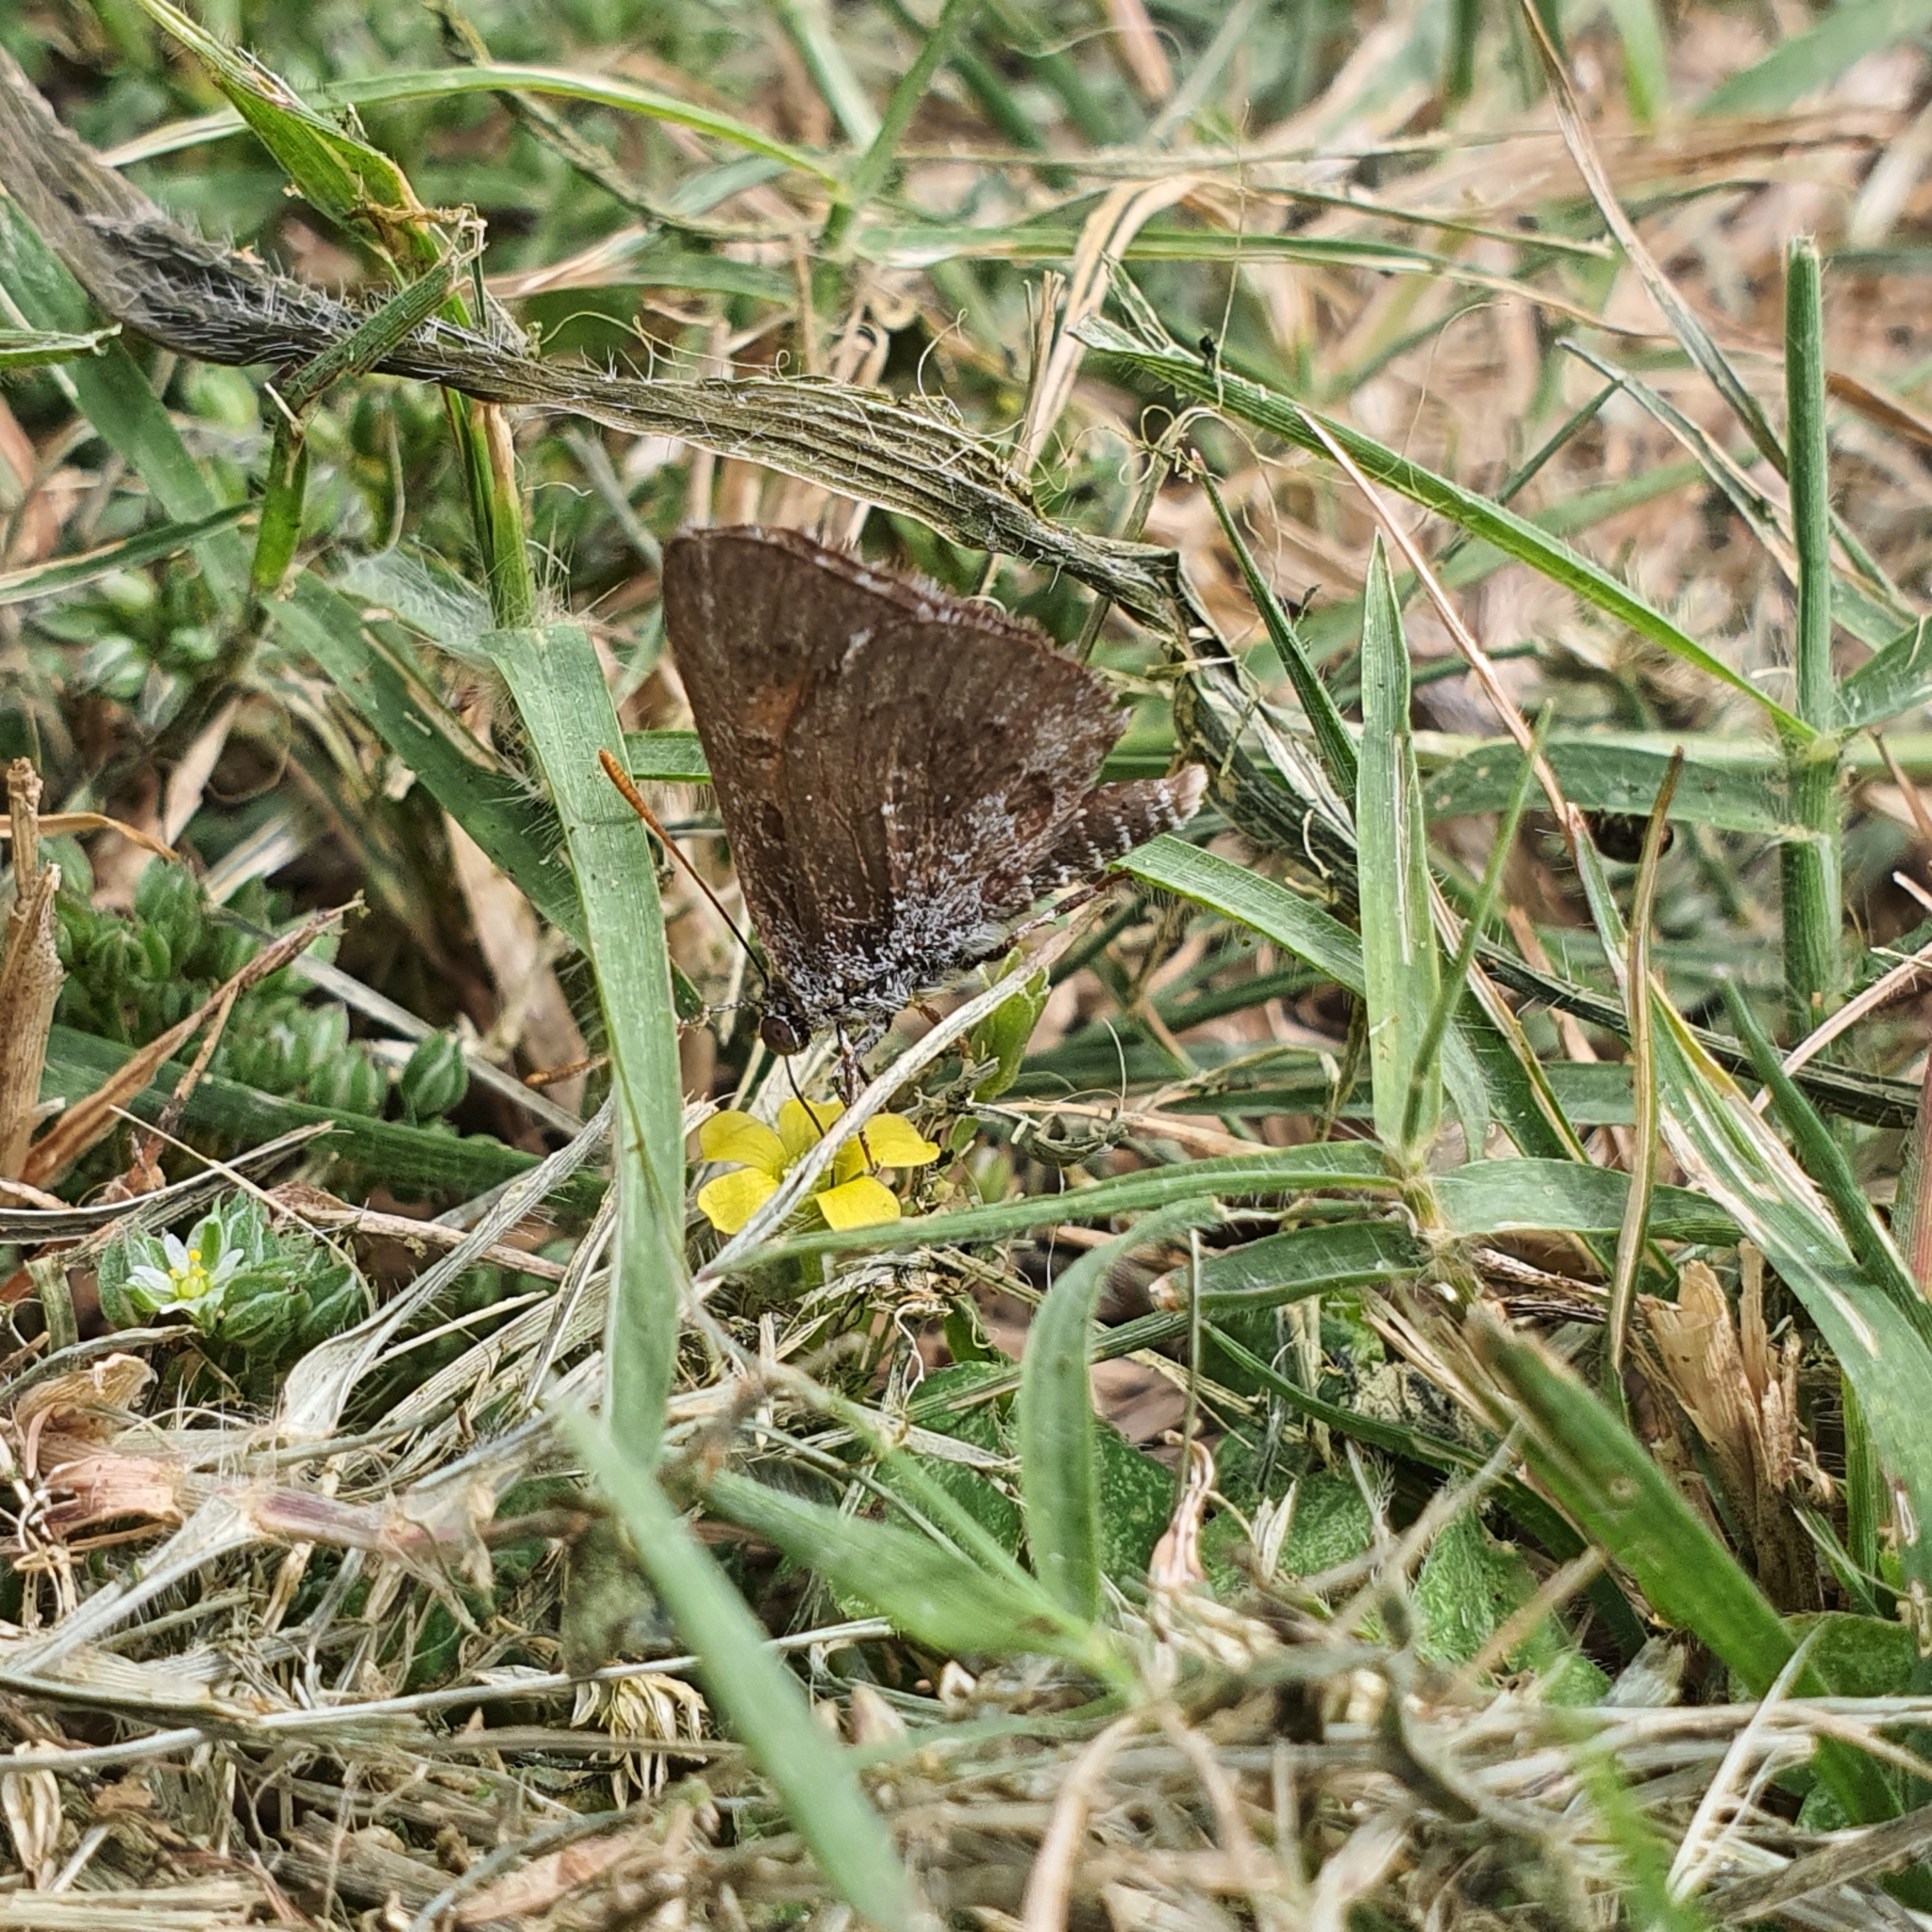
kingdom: Animalia
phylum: Arthropoda
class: Insecta
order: Lepidoptera
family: Lycaenidae
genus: Lucia
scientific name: Lucia limbaria
